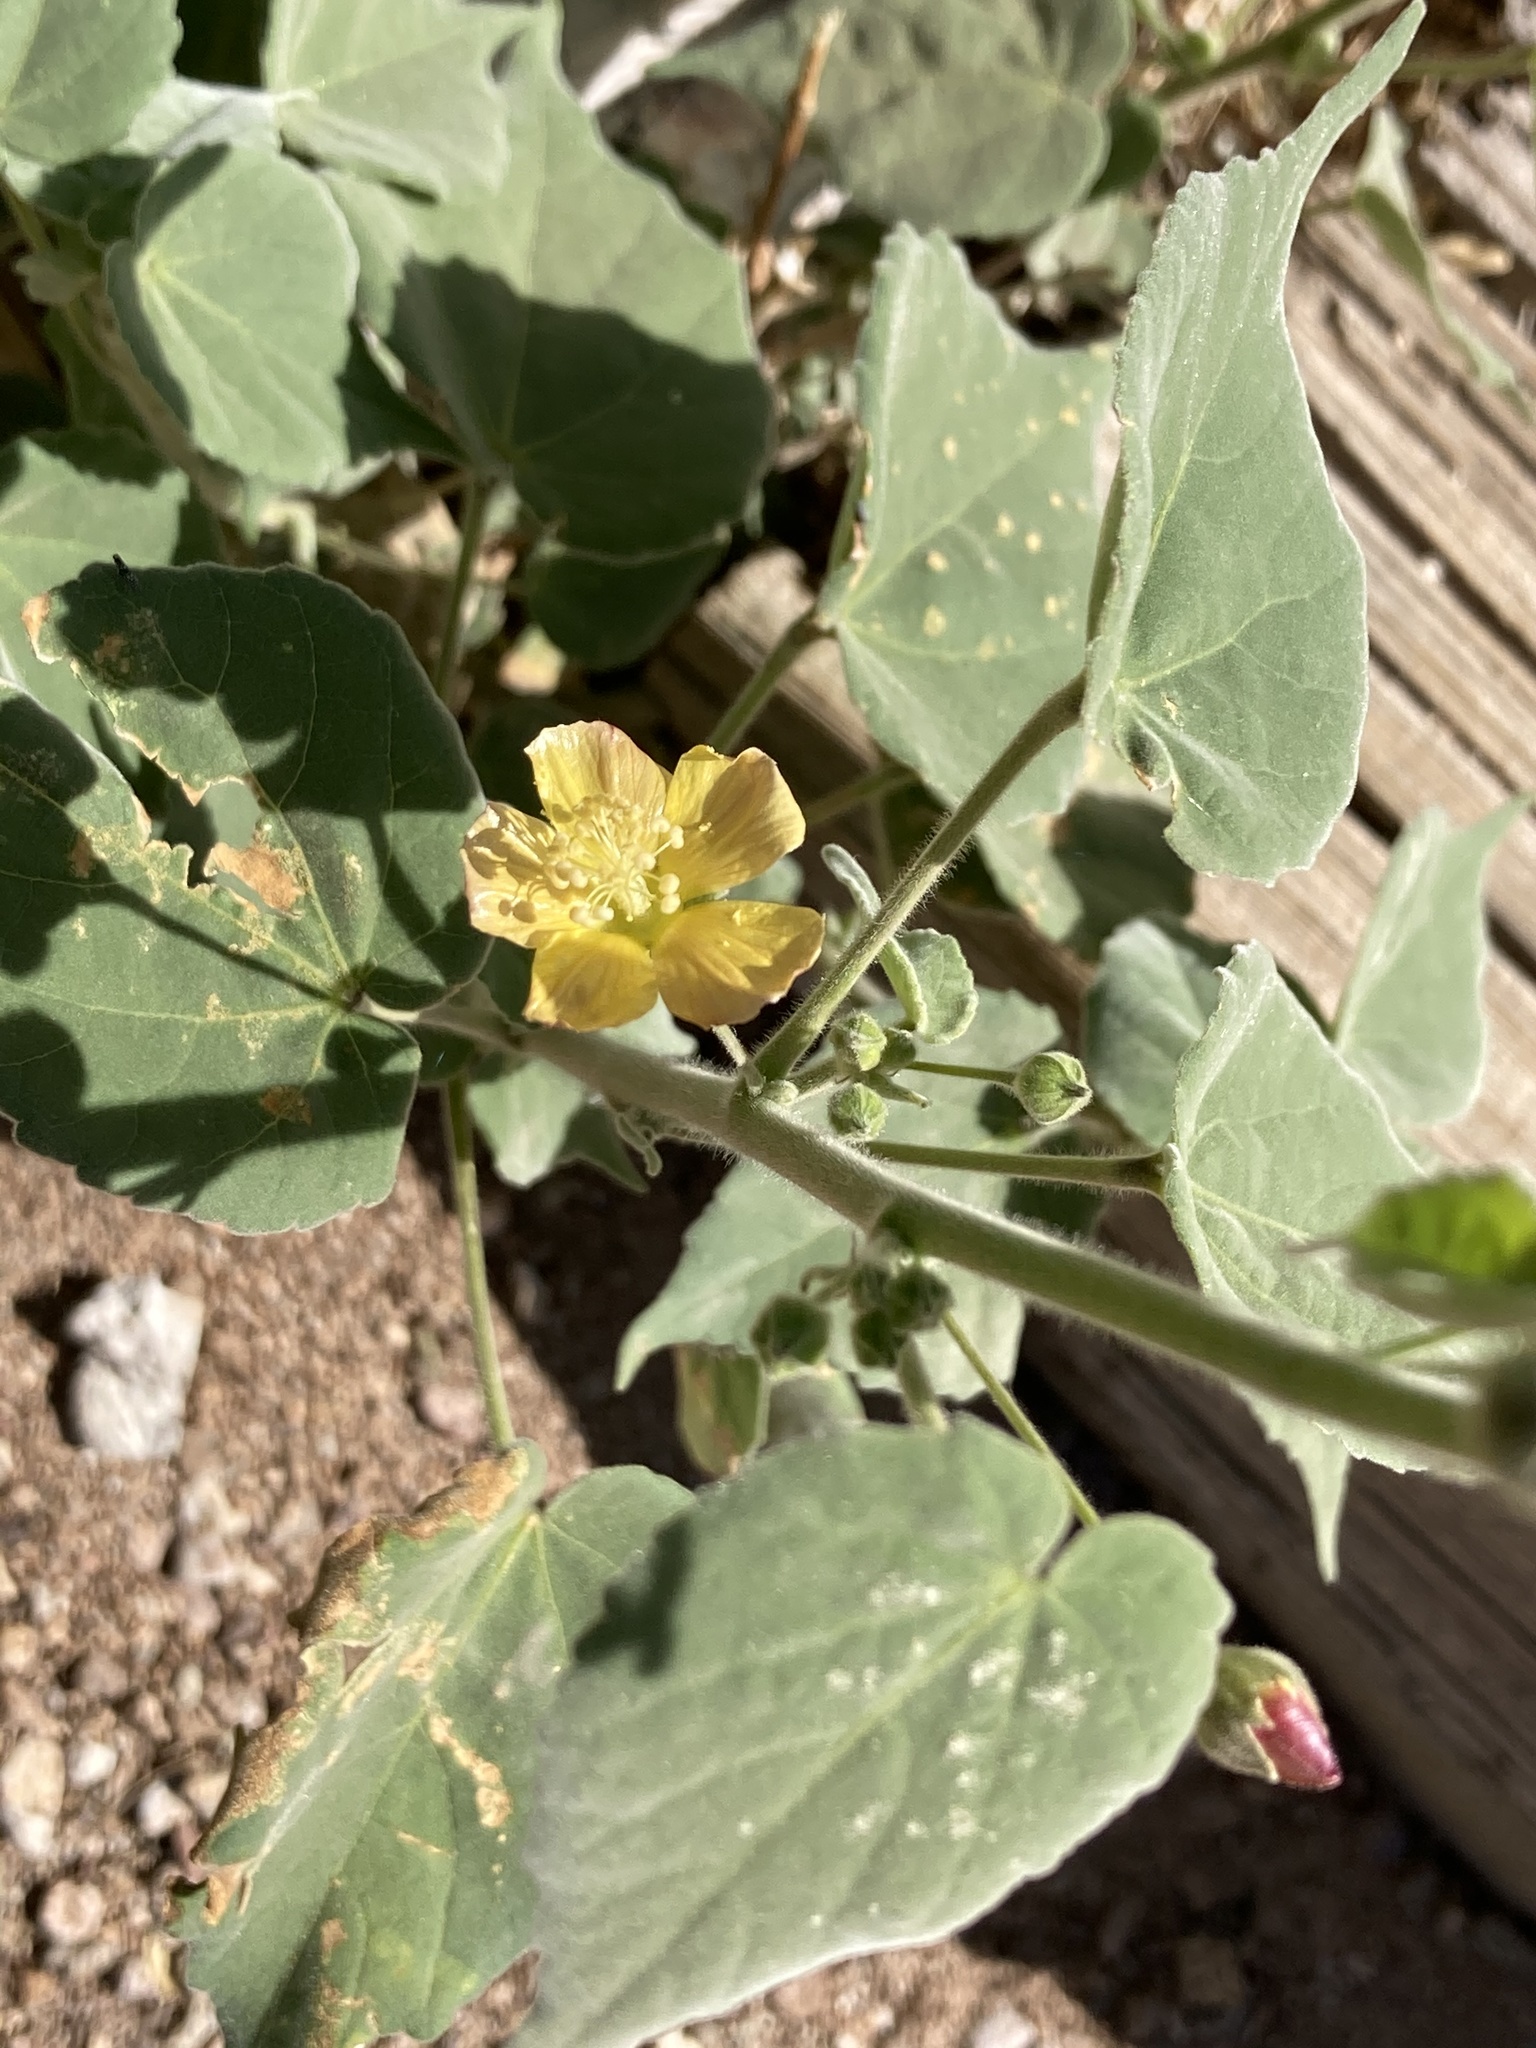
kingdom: Plantae
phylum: Tracheophyta
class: Magnoliopsida
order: Malvales
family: Malvaceae
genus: Anoda
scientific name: Anoda abutiloides
